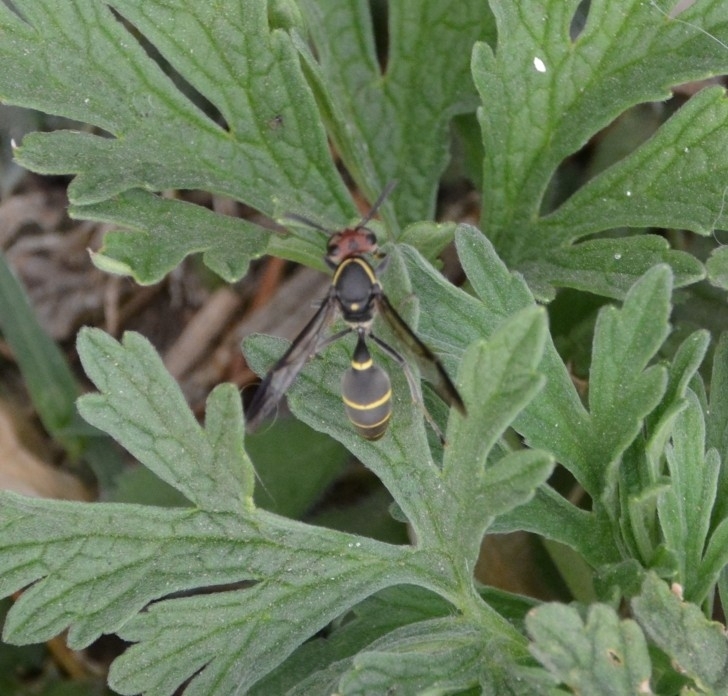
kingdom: Animalia
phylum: Arthropoda
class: Insecta
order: Hymenoptera
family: Eumenidae
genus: Polybia
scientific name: Polybia ruficeps
